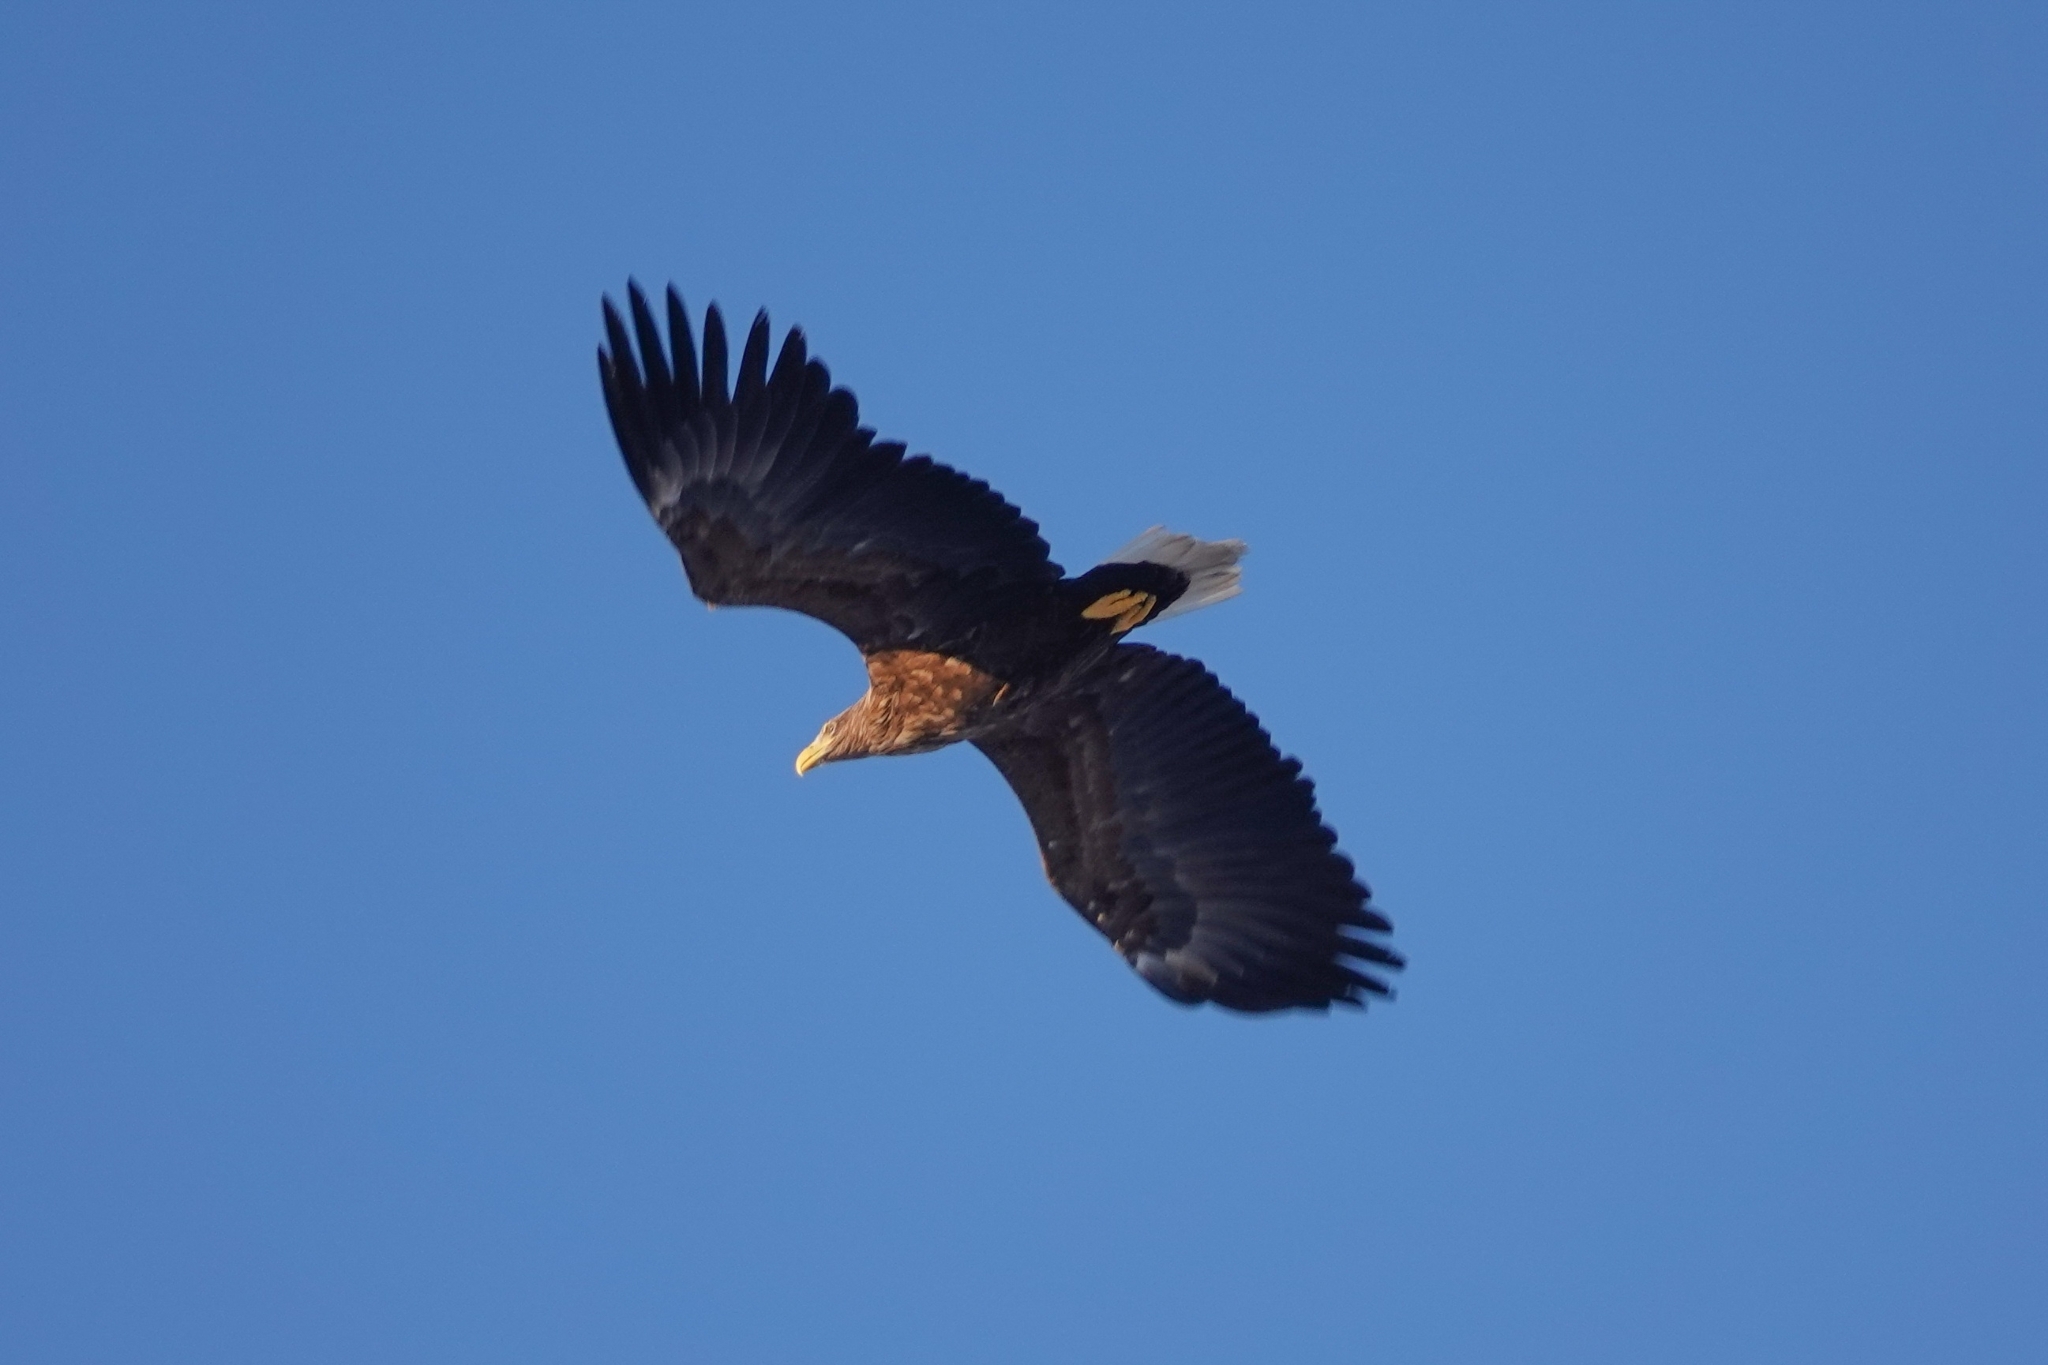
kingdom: Animalia
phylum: Chordata
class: Aves
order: Accipitriformes
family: Accipitridae
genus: Haliaeetus
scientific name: Haliaeetus albicilla
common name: White-tailed eagle
